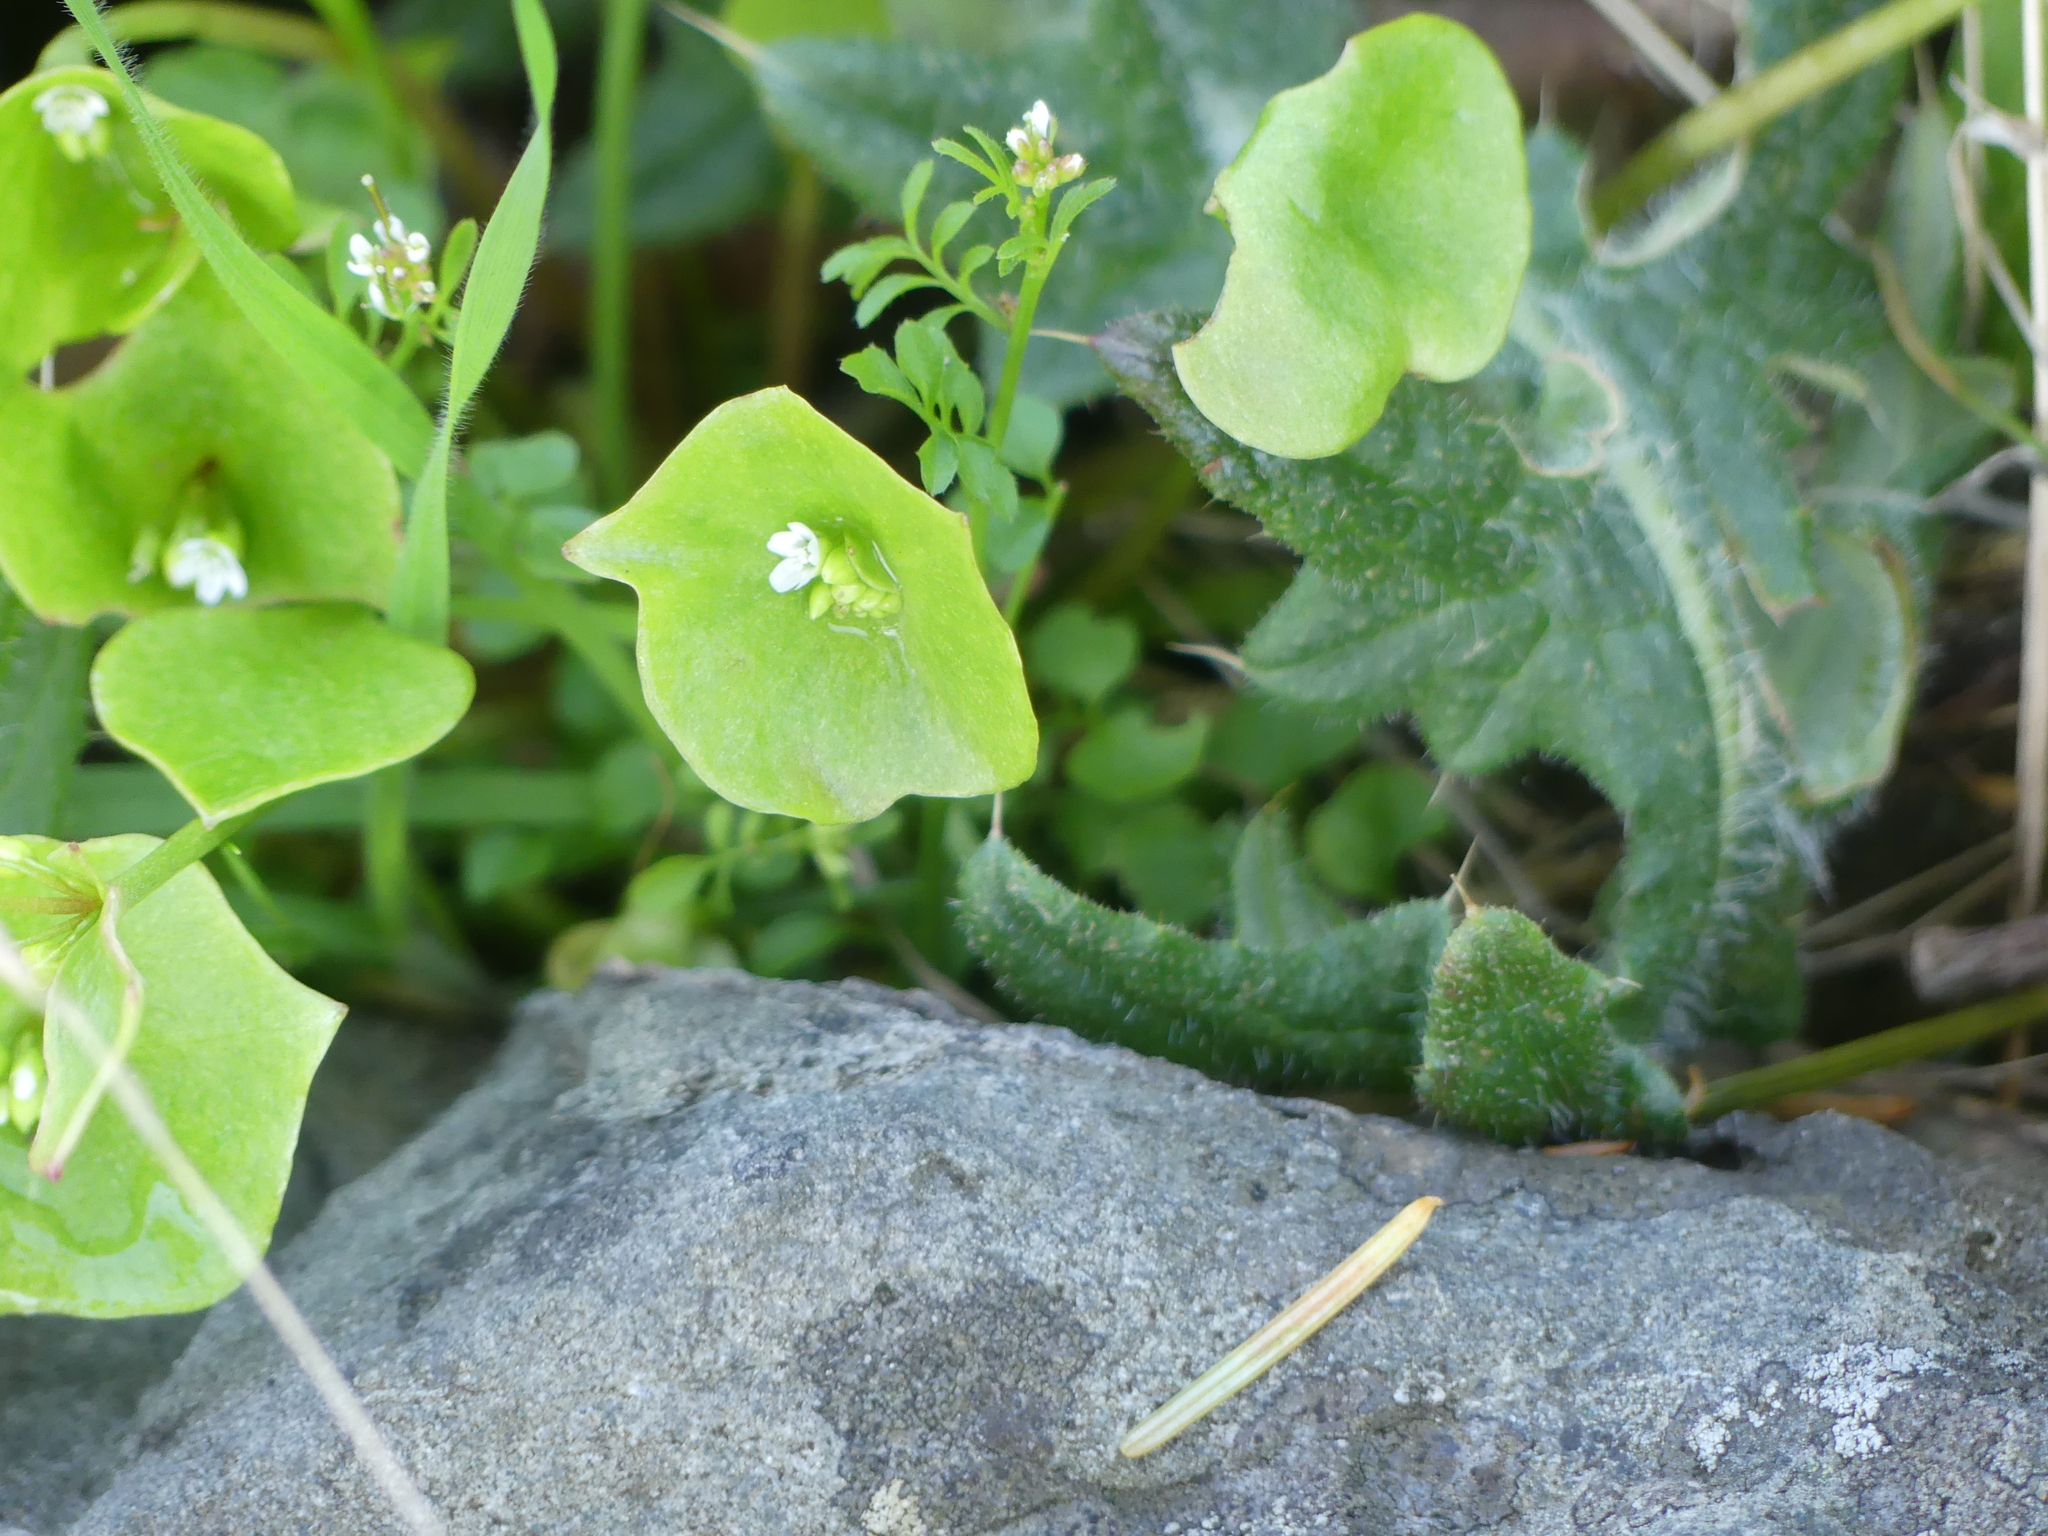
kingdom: Plantae
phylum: Tracheophyta
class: Magnoliopsida
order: Caryophyllales
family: Montiaceae
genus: Claytonia
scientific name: Claytonia perfoliata
